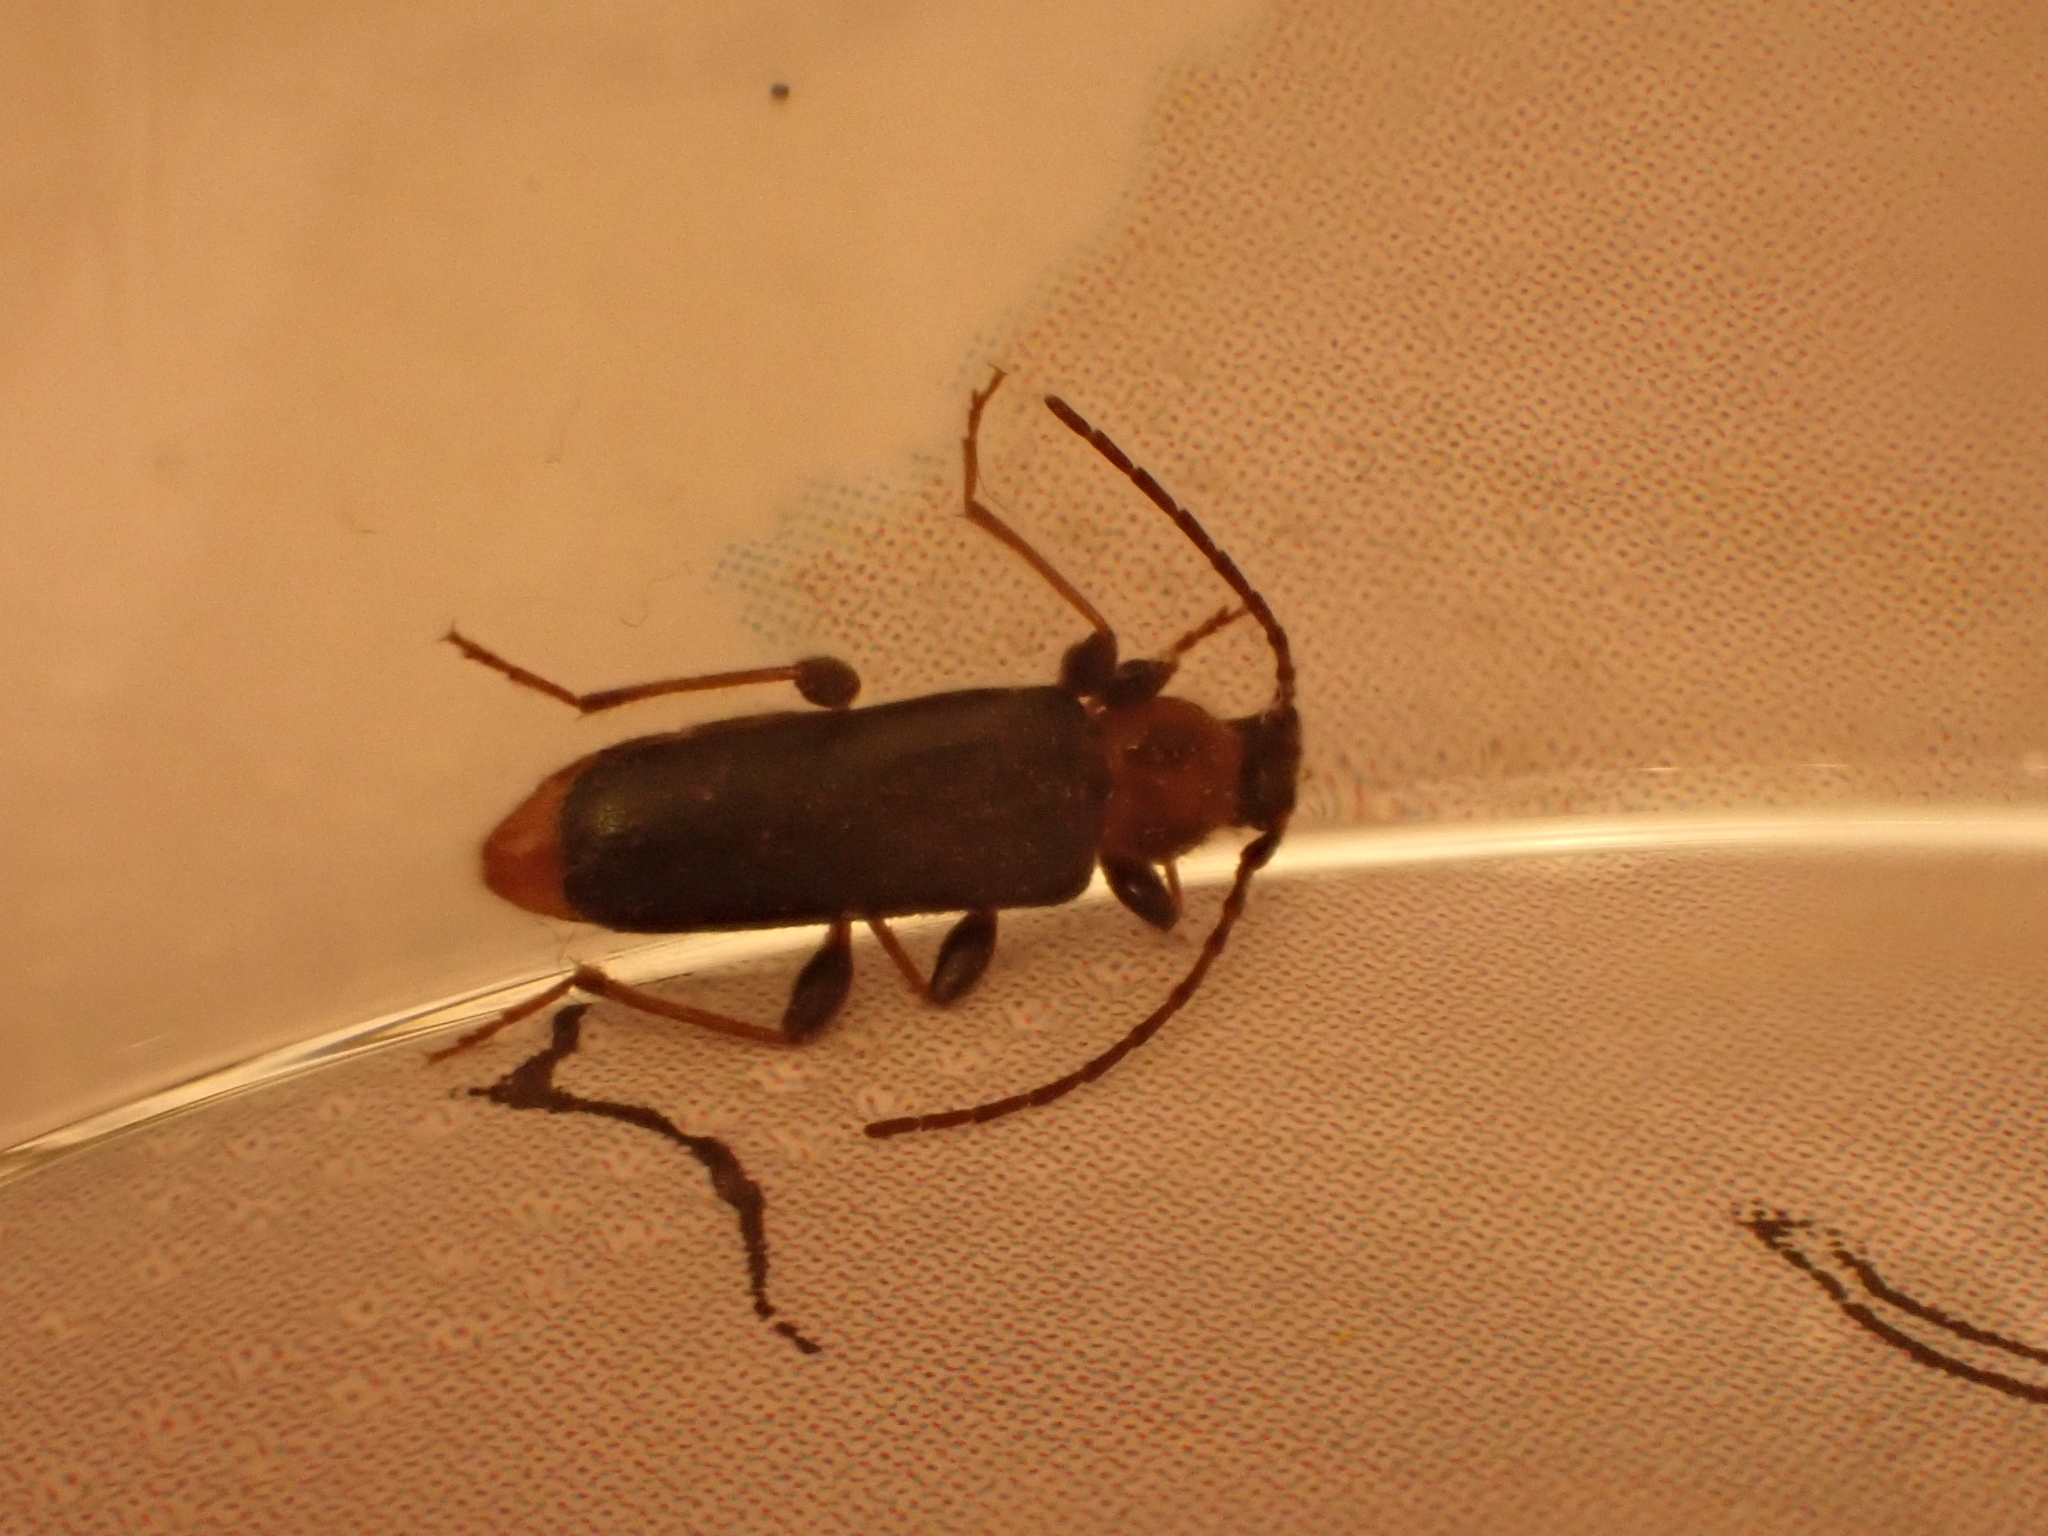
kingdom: Animalia
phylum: Arthropoda
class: Insecta
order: Coleoptera
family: Cerambycidae
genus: Phymatodes
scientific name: Phymatodes testaceus
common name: Long-horned beetle
